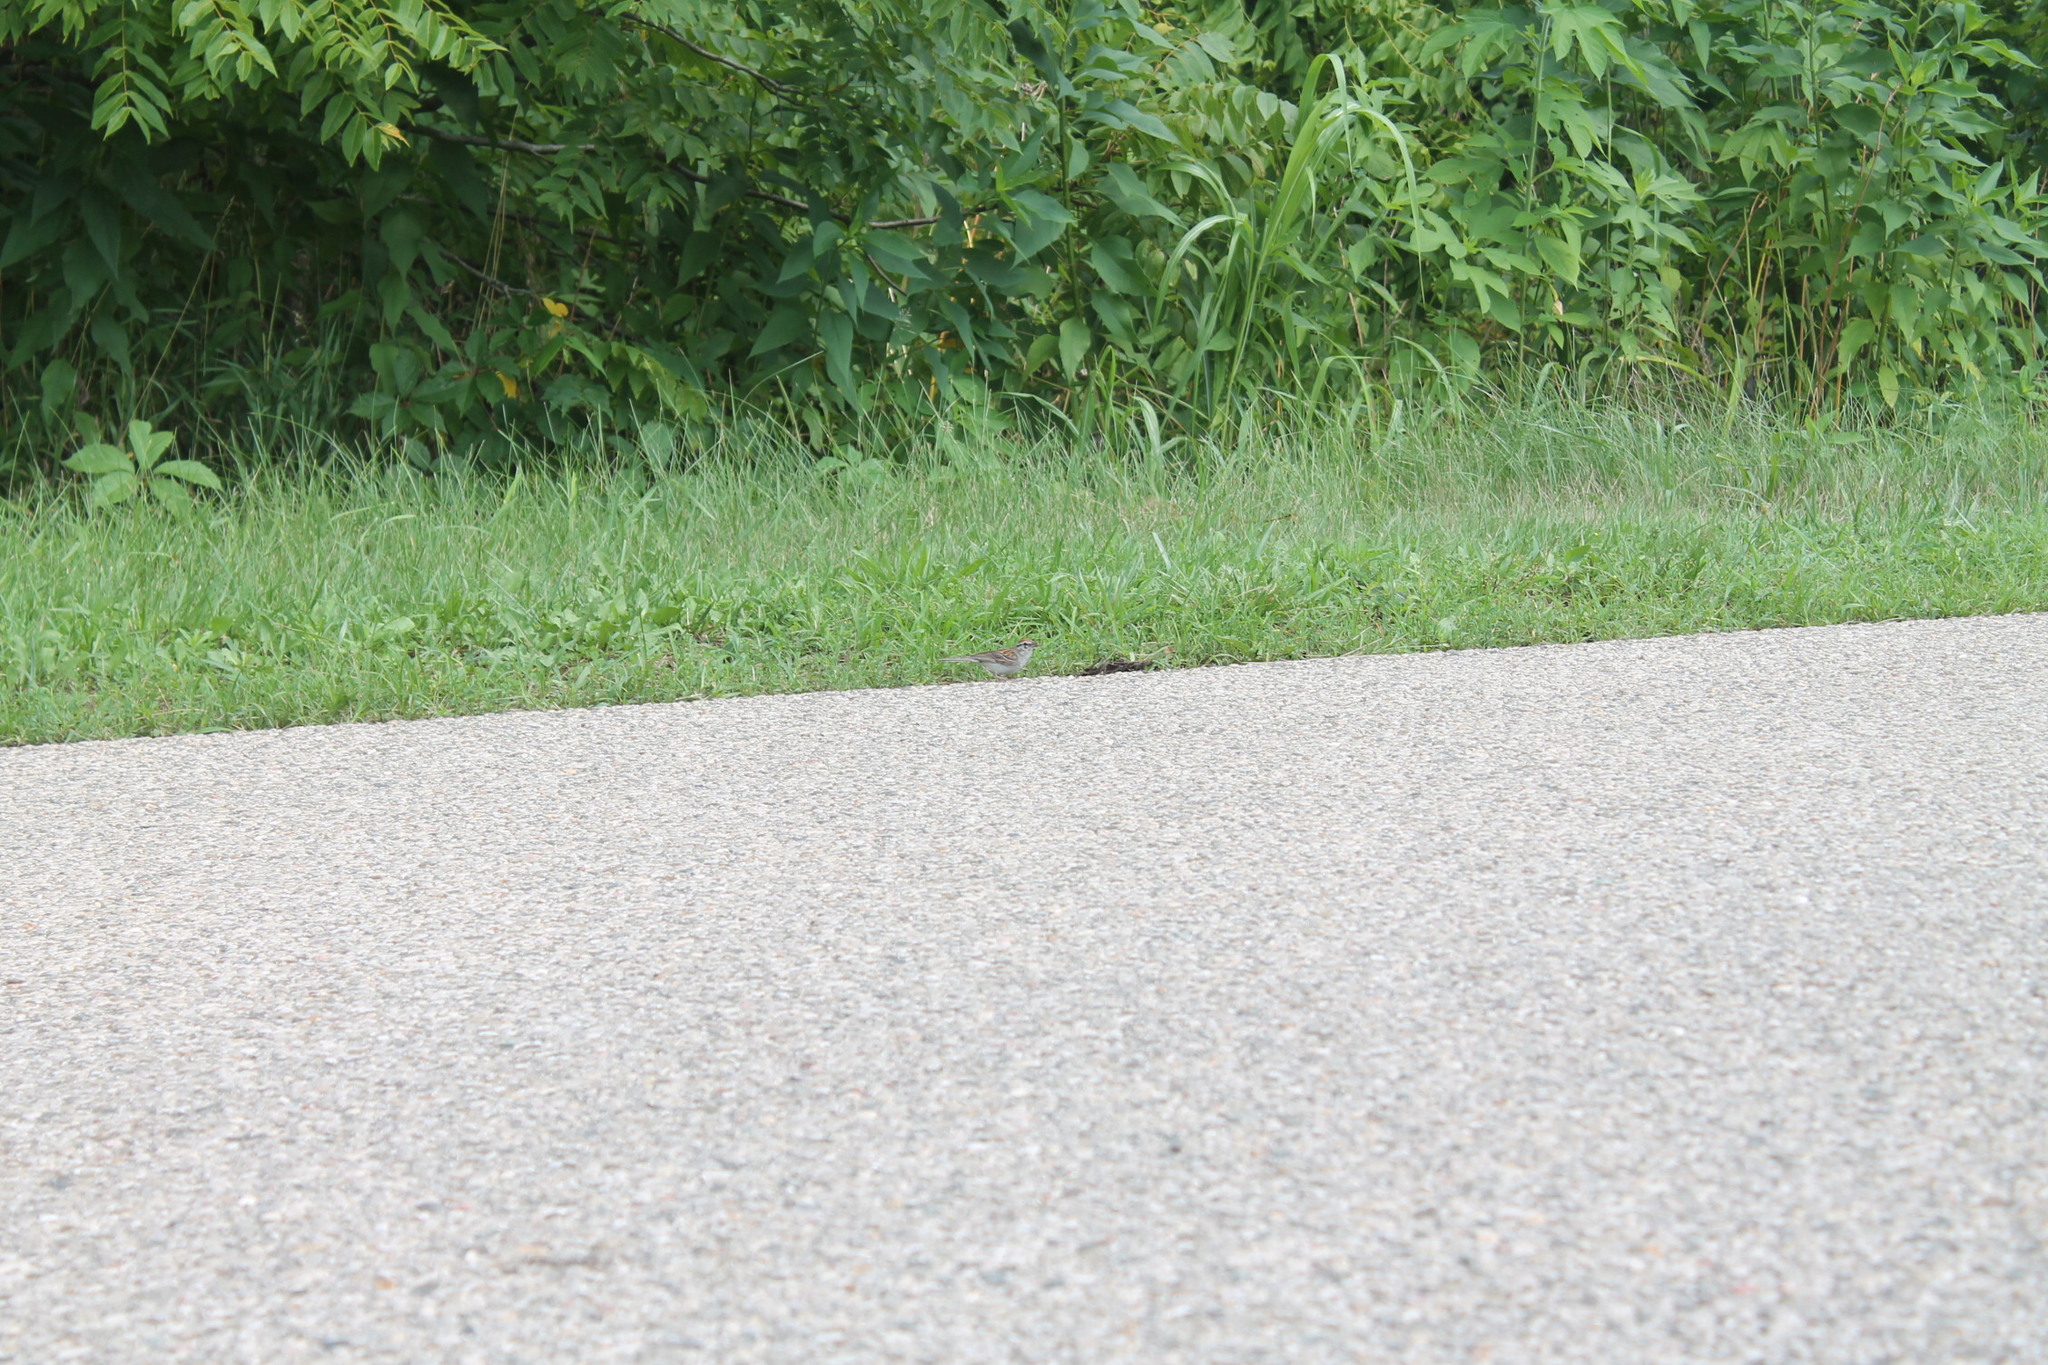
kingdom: Animalia
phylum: Chordata
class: Aves
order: Passeriformes
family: Passerellidae
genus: Spizella
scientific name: Spizella passerina
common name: Chipping sparrow
